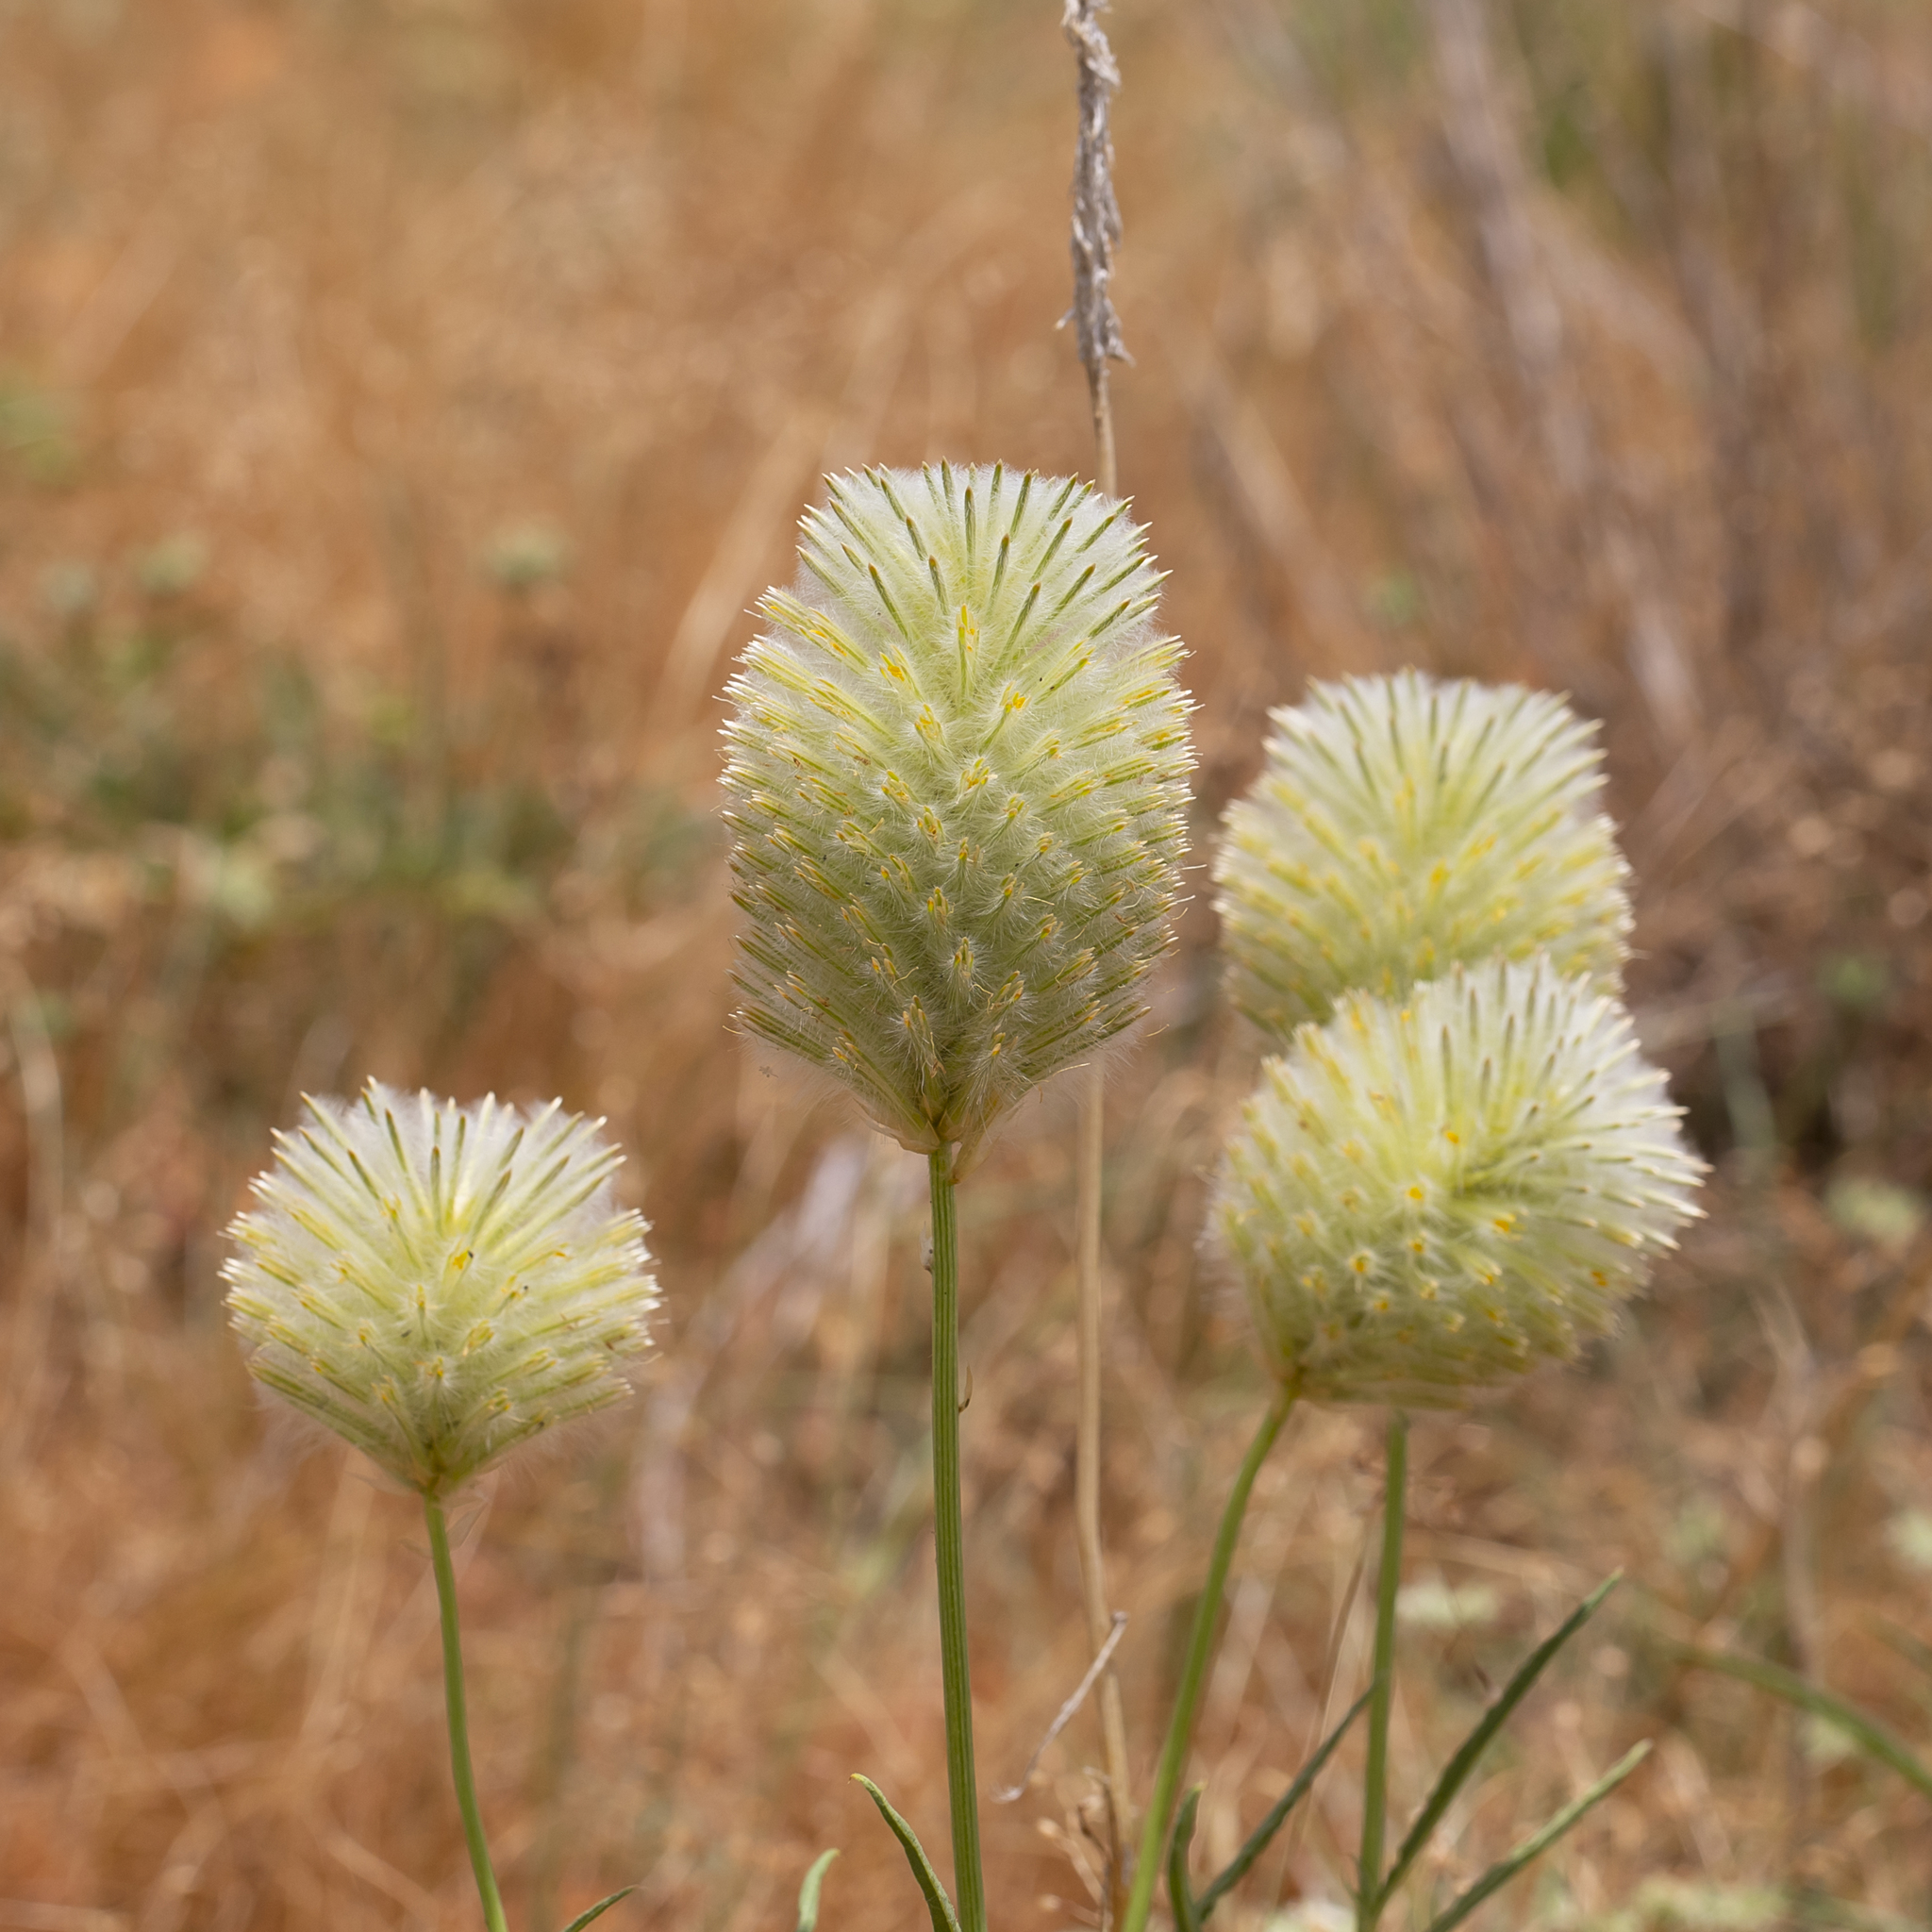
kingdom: Plantae
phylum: Tracheophyta
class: Magnoliopsida
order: Caryophyllales
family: Amaranthaceae
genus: Ptilotus
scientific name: Ptilotus xerophilus
